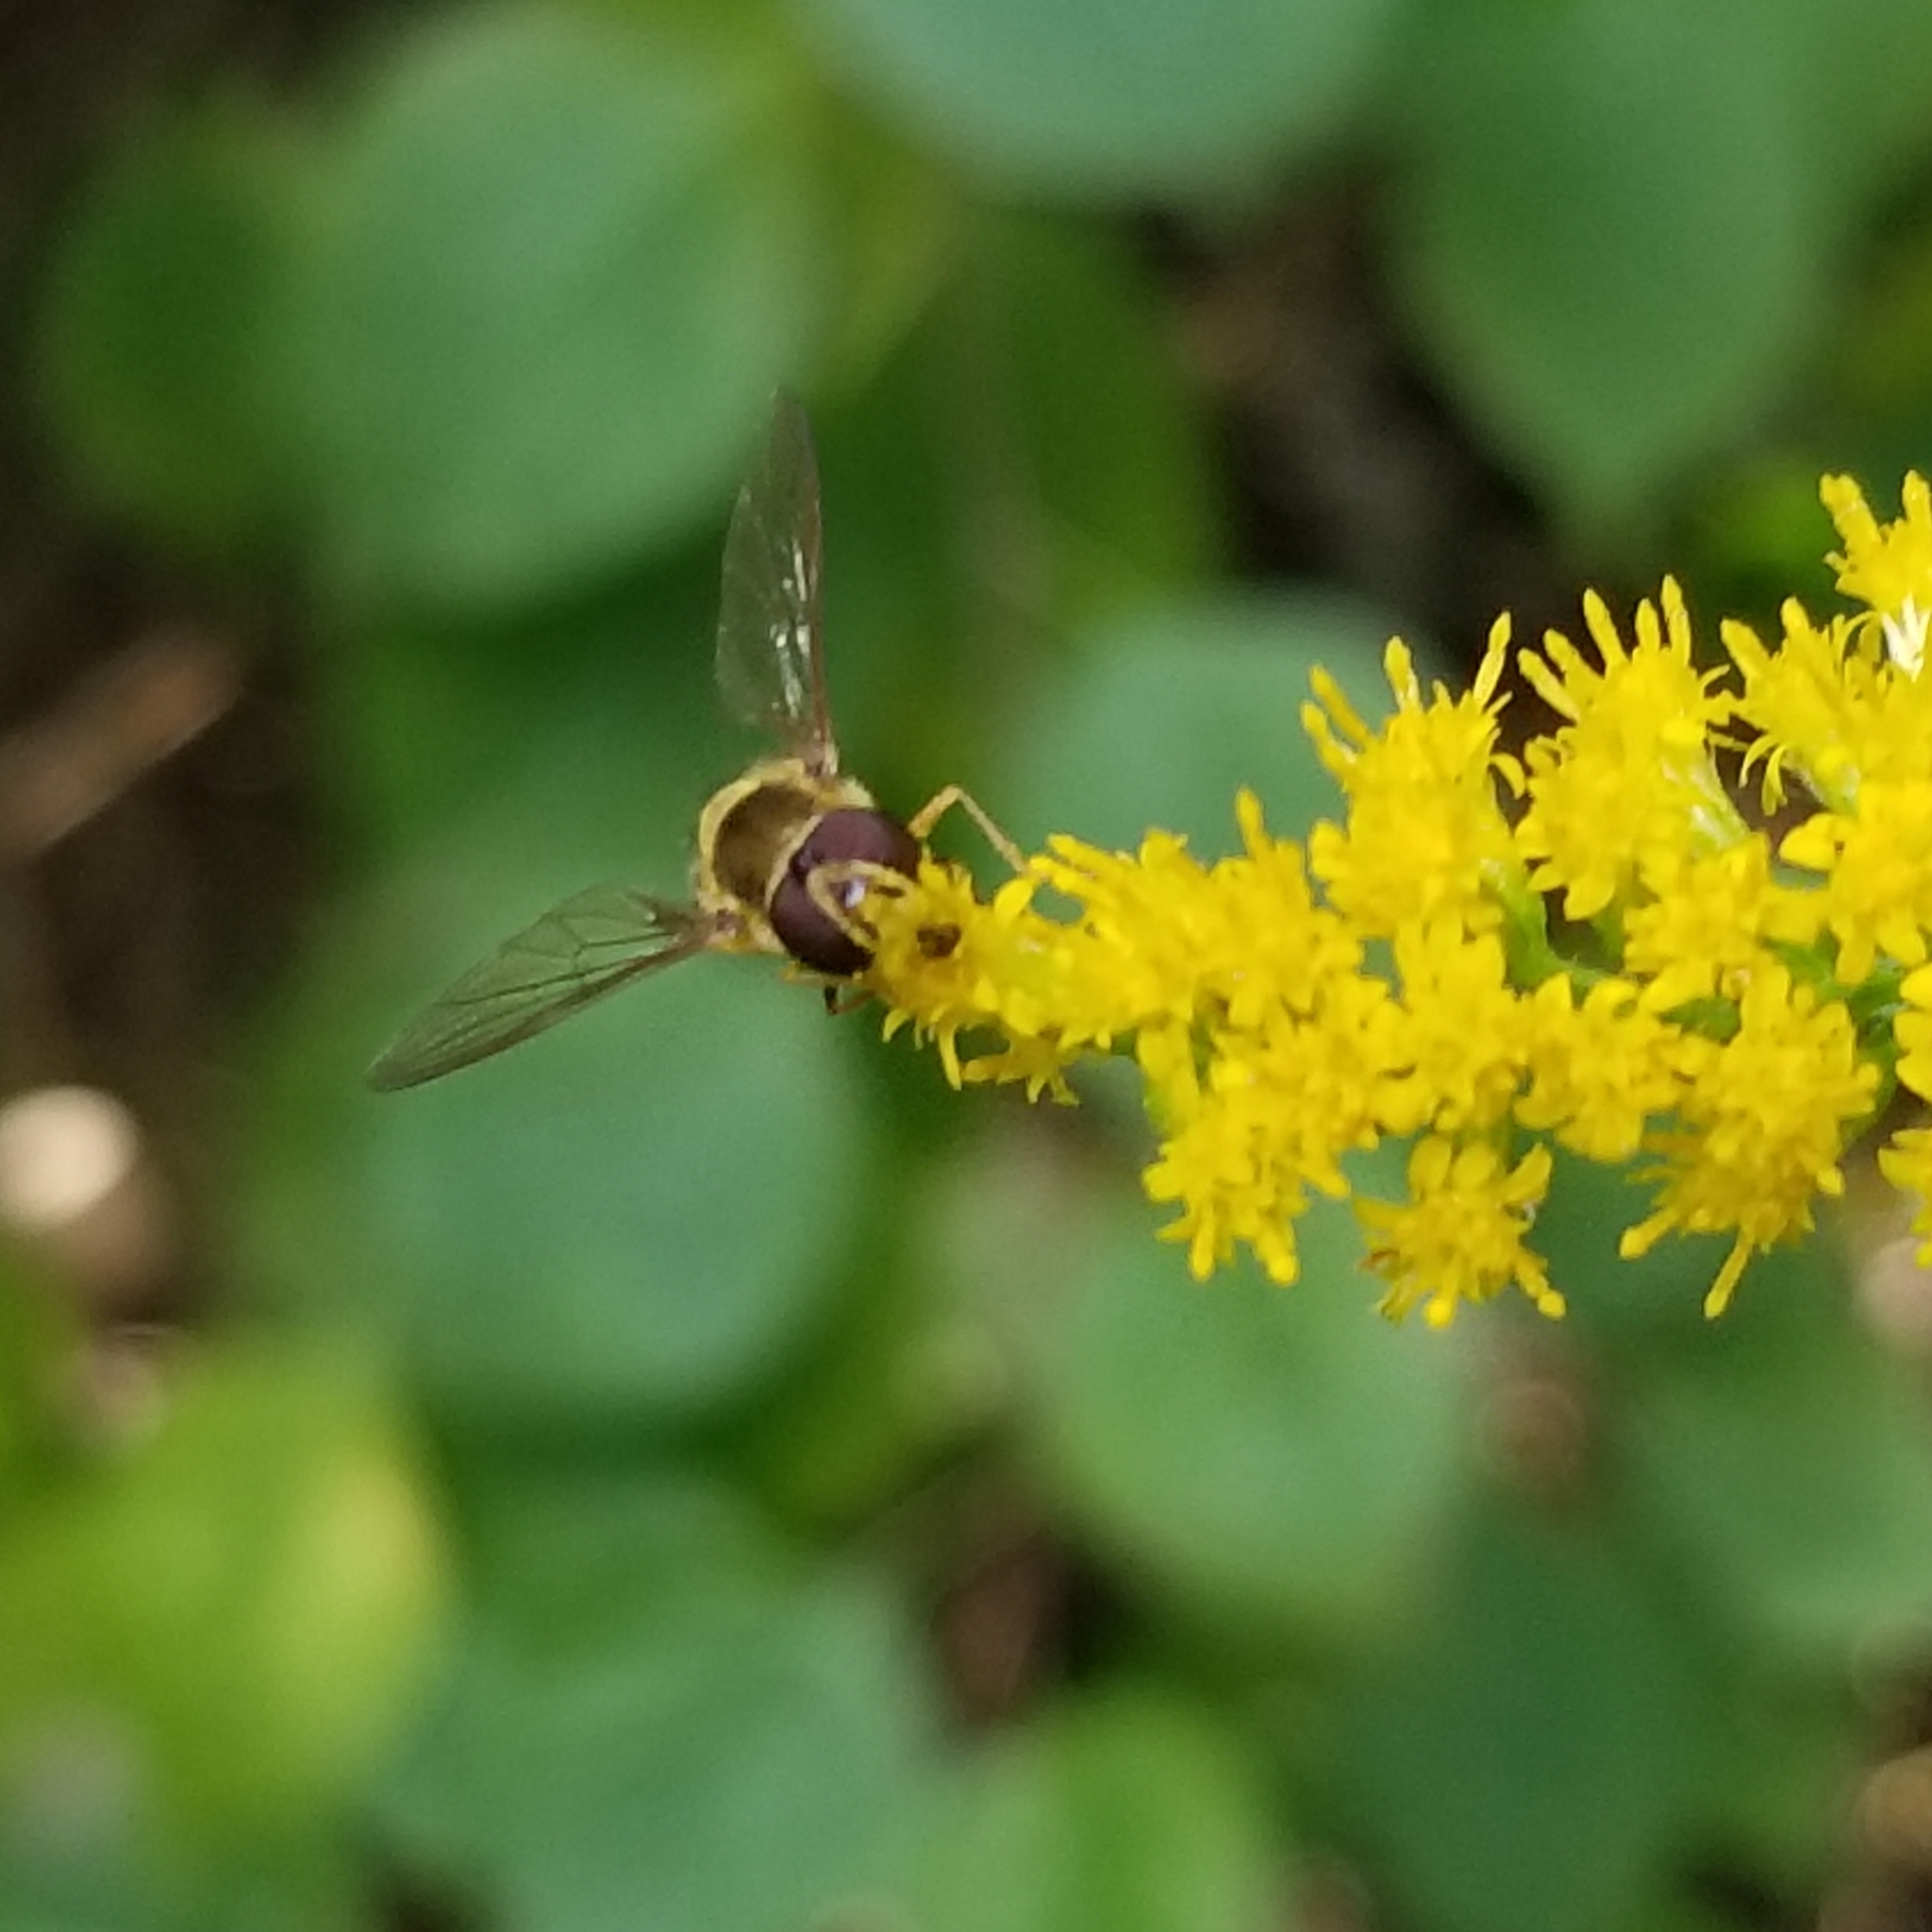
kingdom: Animalia
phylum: Arthropoda
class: Insecta
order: Diptera
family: Syrphidae
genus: Syrphus
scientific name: Syrphus rectus
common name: Yellow-legged flower fly
